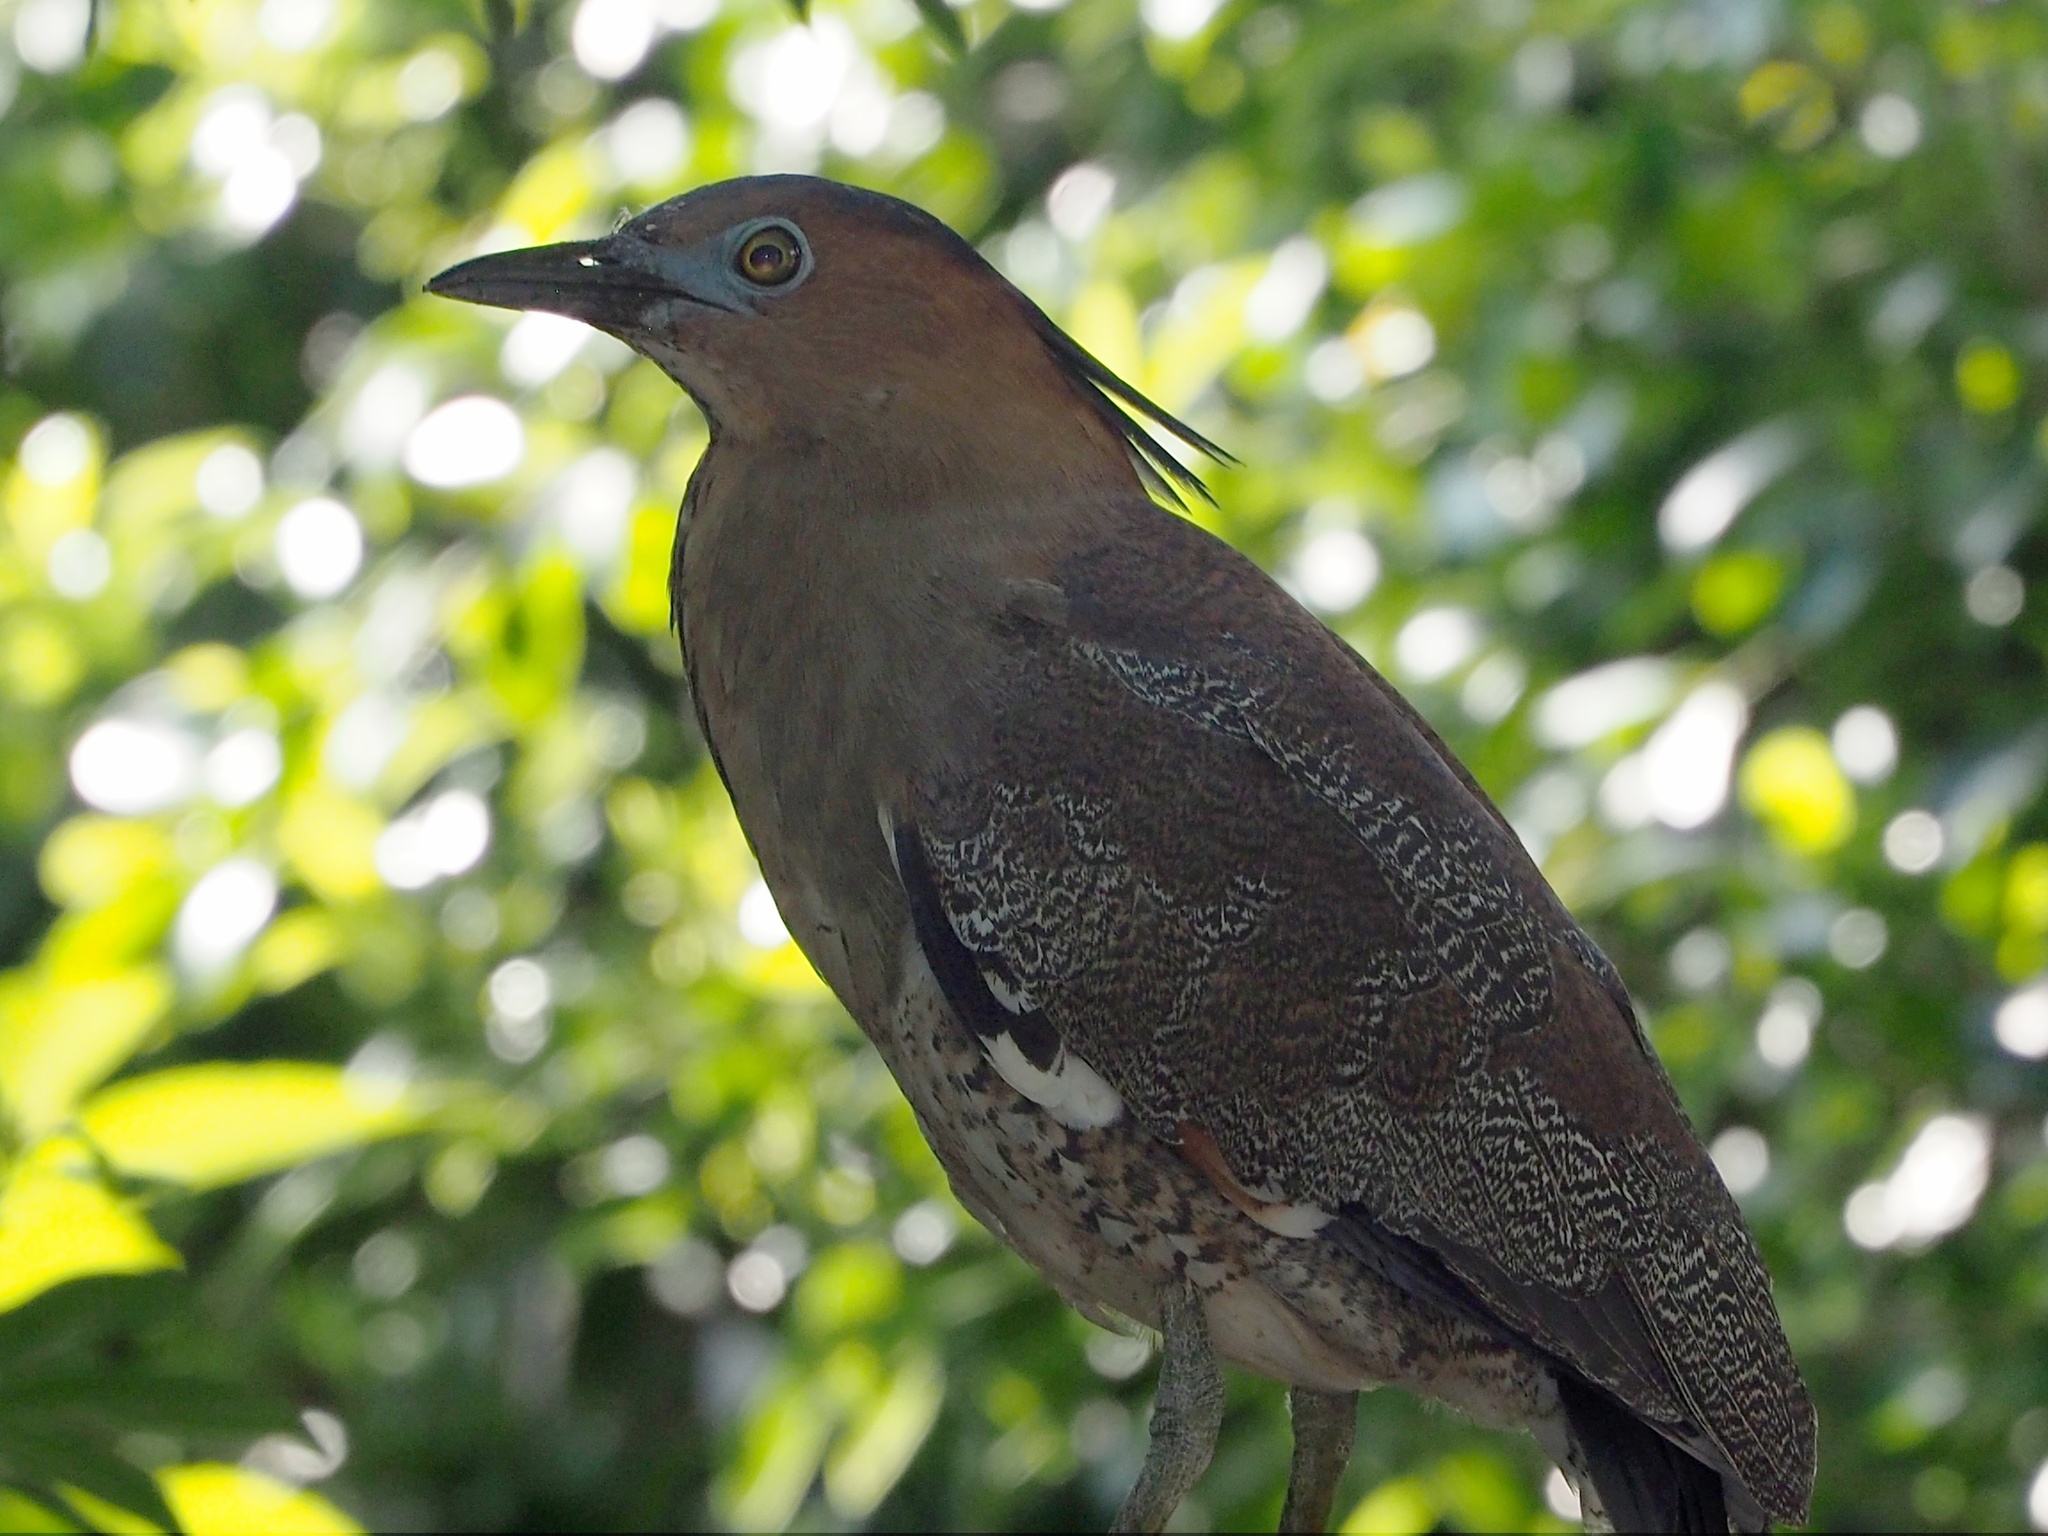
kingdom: Animalia
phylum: Chordata
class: Aves
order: Pelecaniformes
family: Ardeidae
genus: Gorsachius
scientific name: Gorsachius melanolophus
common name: Malayan night heron
